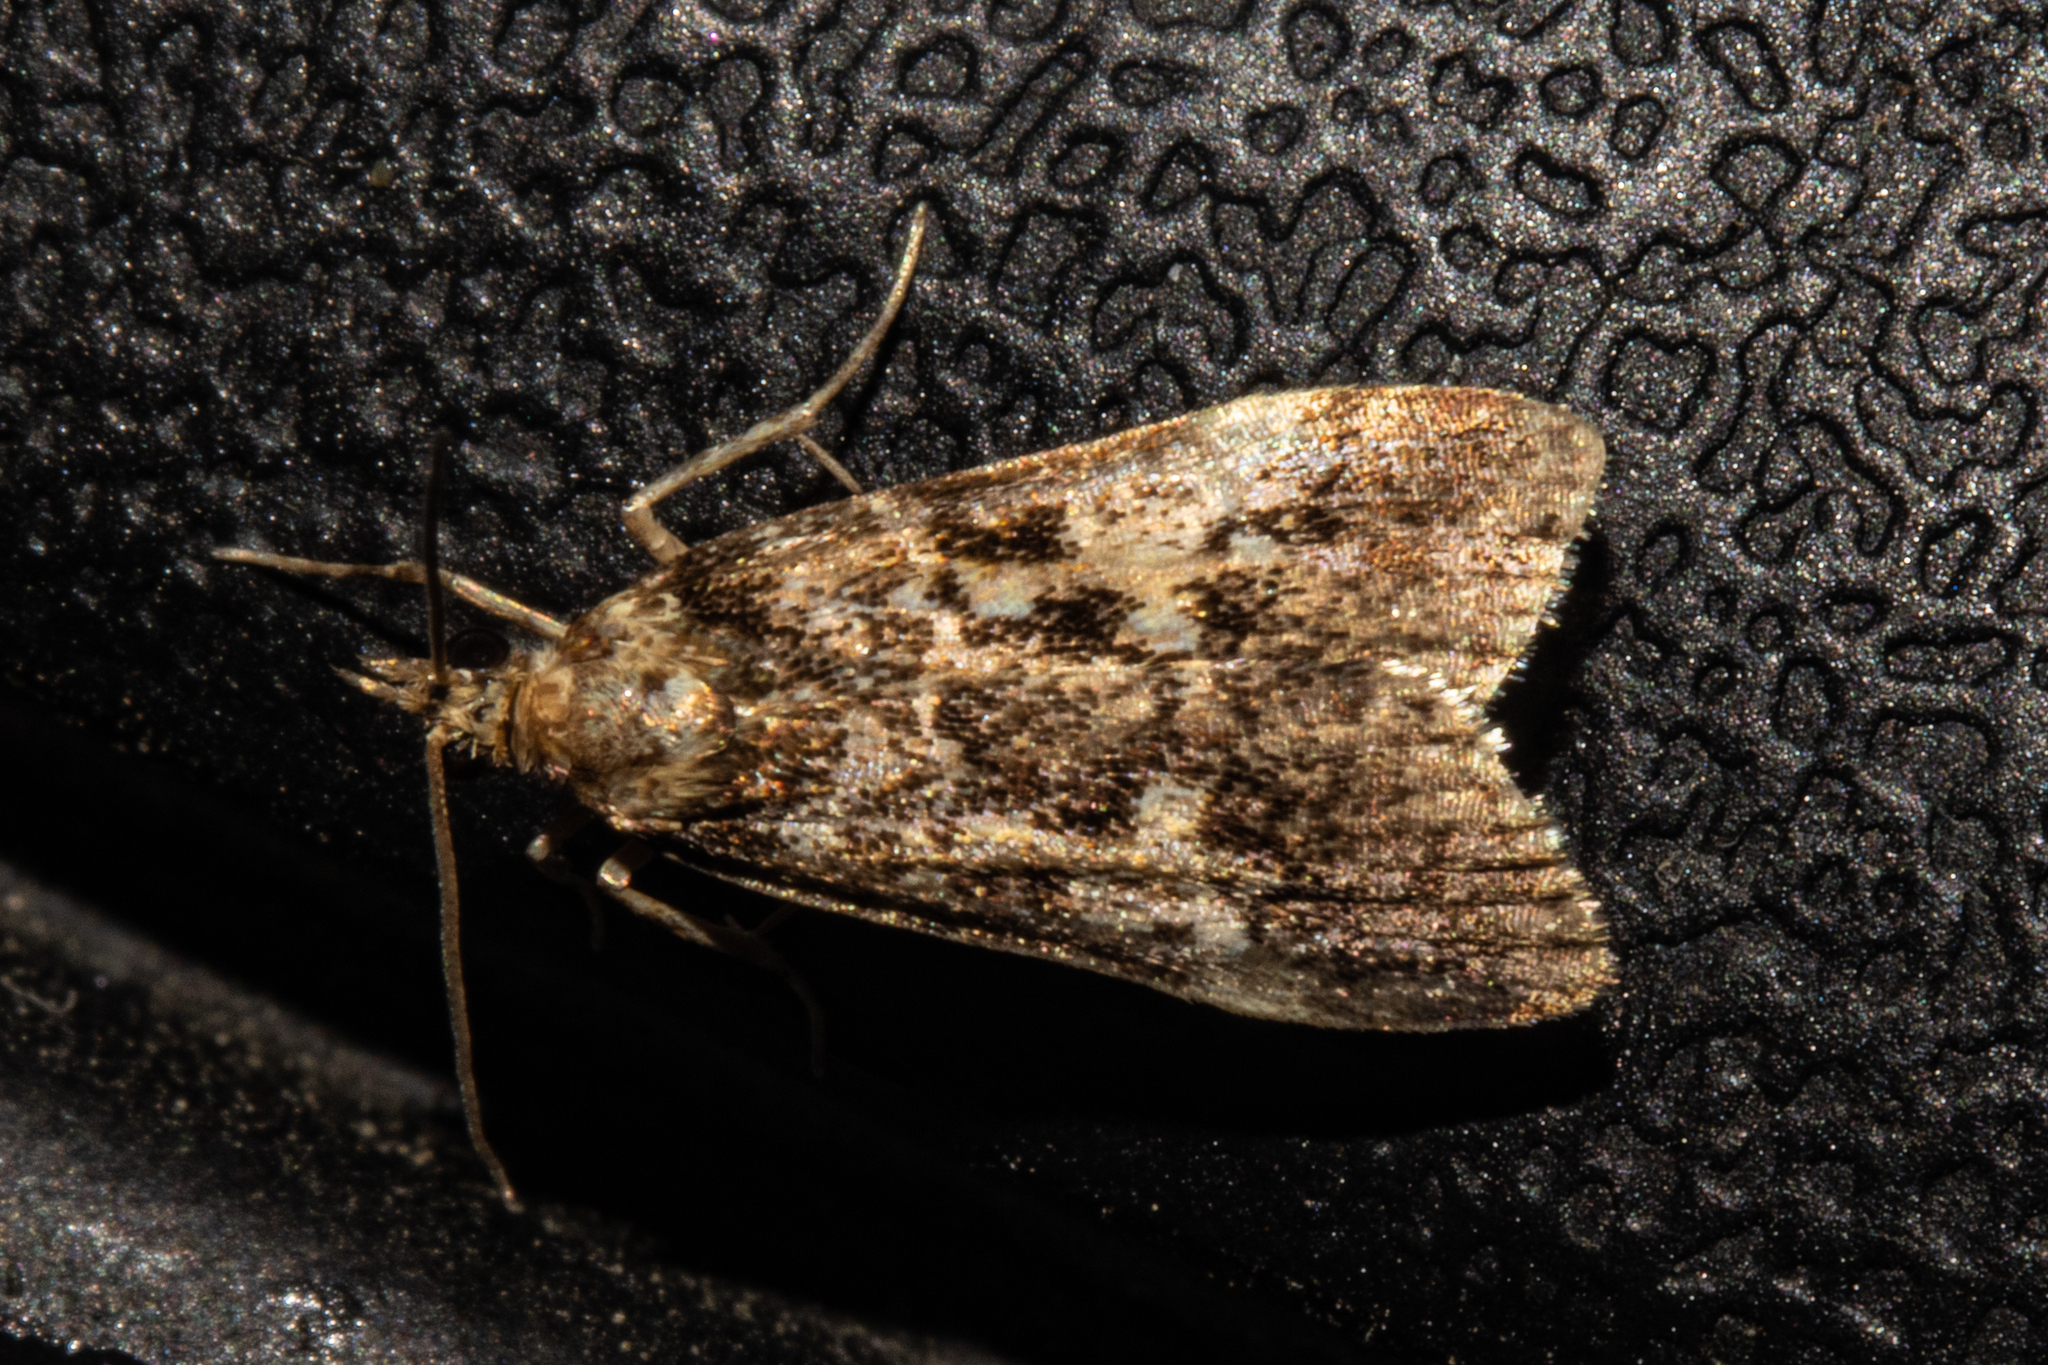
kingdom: Animalia
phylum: Arthropoda
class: Insecta
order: Lepidoptera
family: Crambidae
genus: Eudonia
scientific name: Eudonia characta
